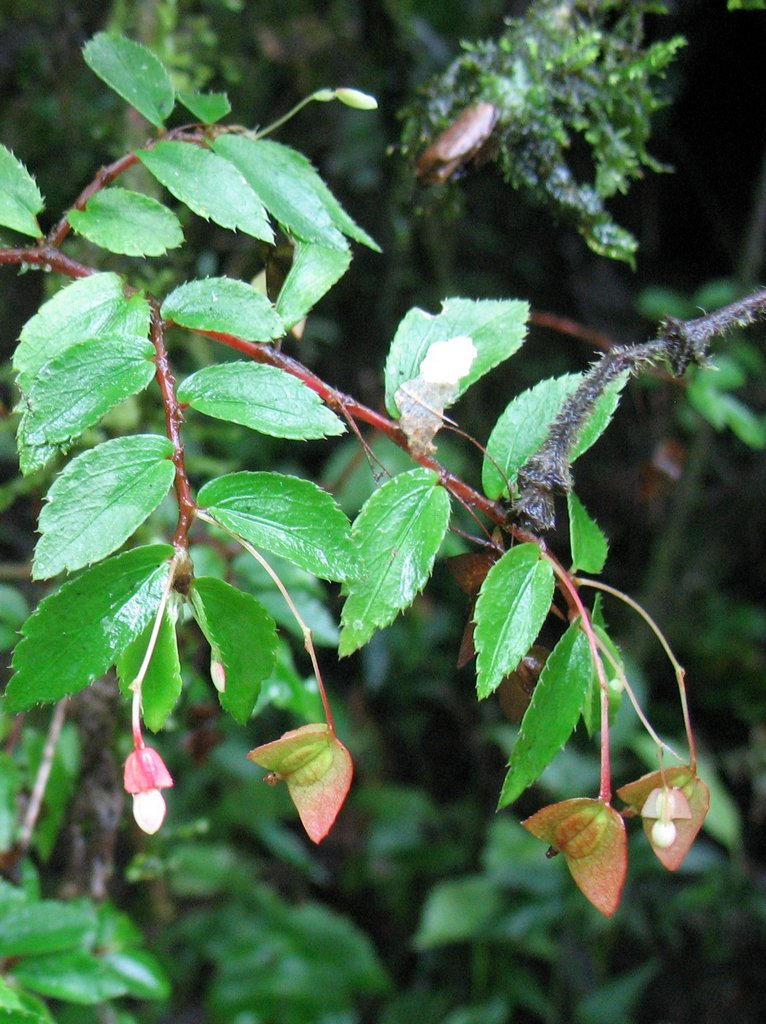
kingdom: Plantae
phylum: Tracheophyta
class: Magnoliopsida
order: Cucurbitales
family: Begoniaceae
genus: Begonia
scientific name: Begonia foliosa
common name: Fern begonia
